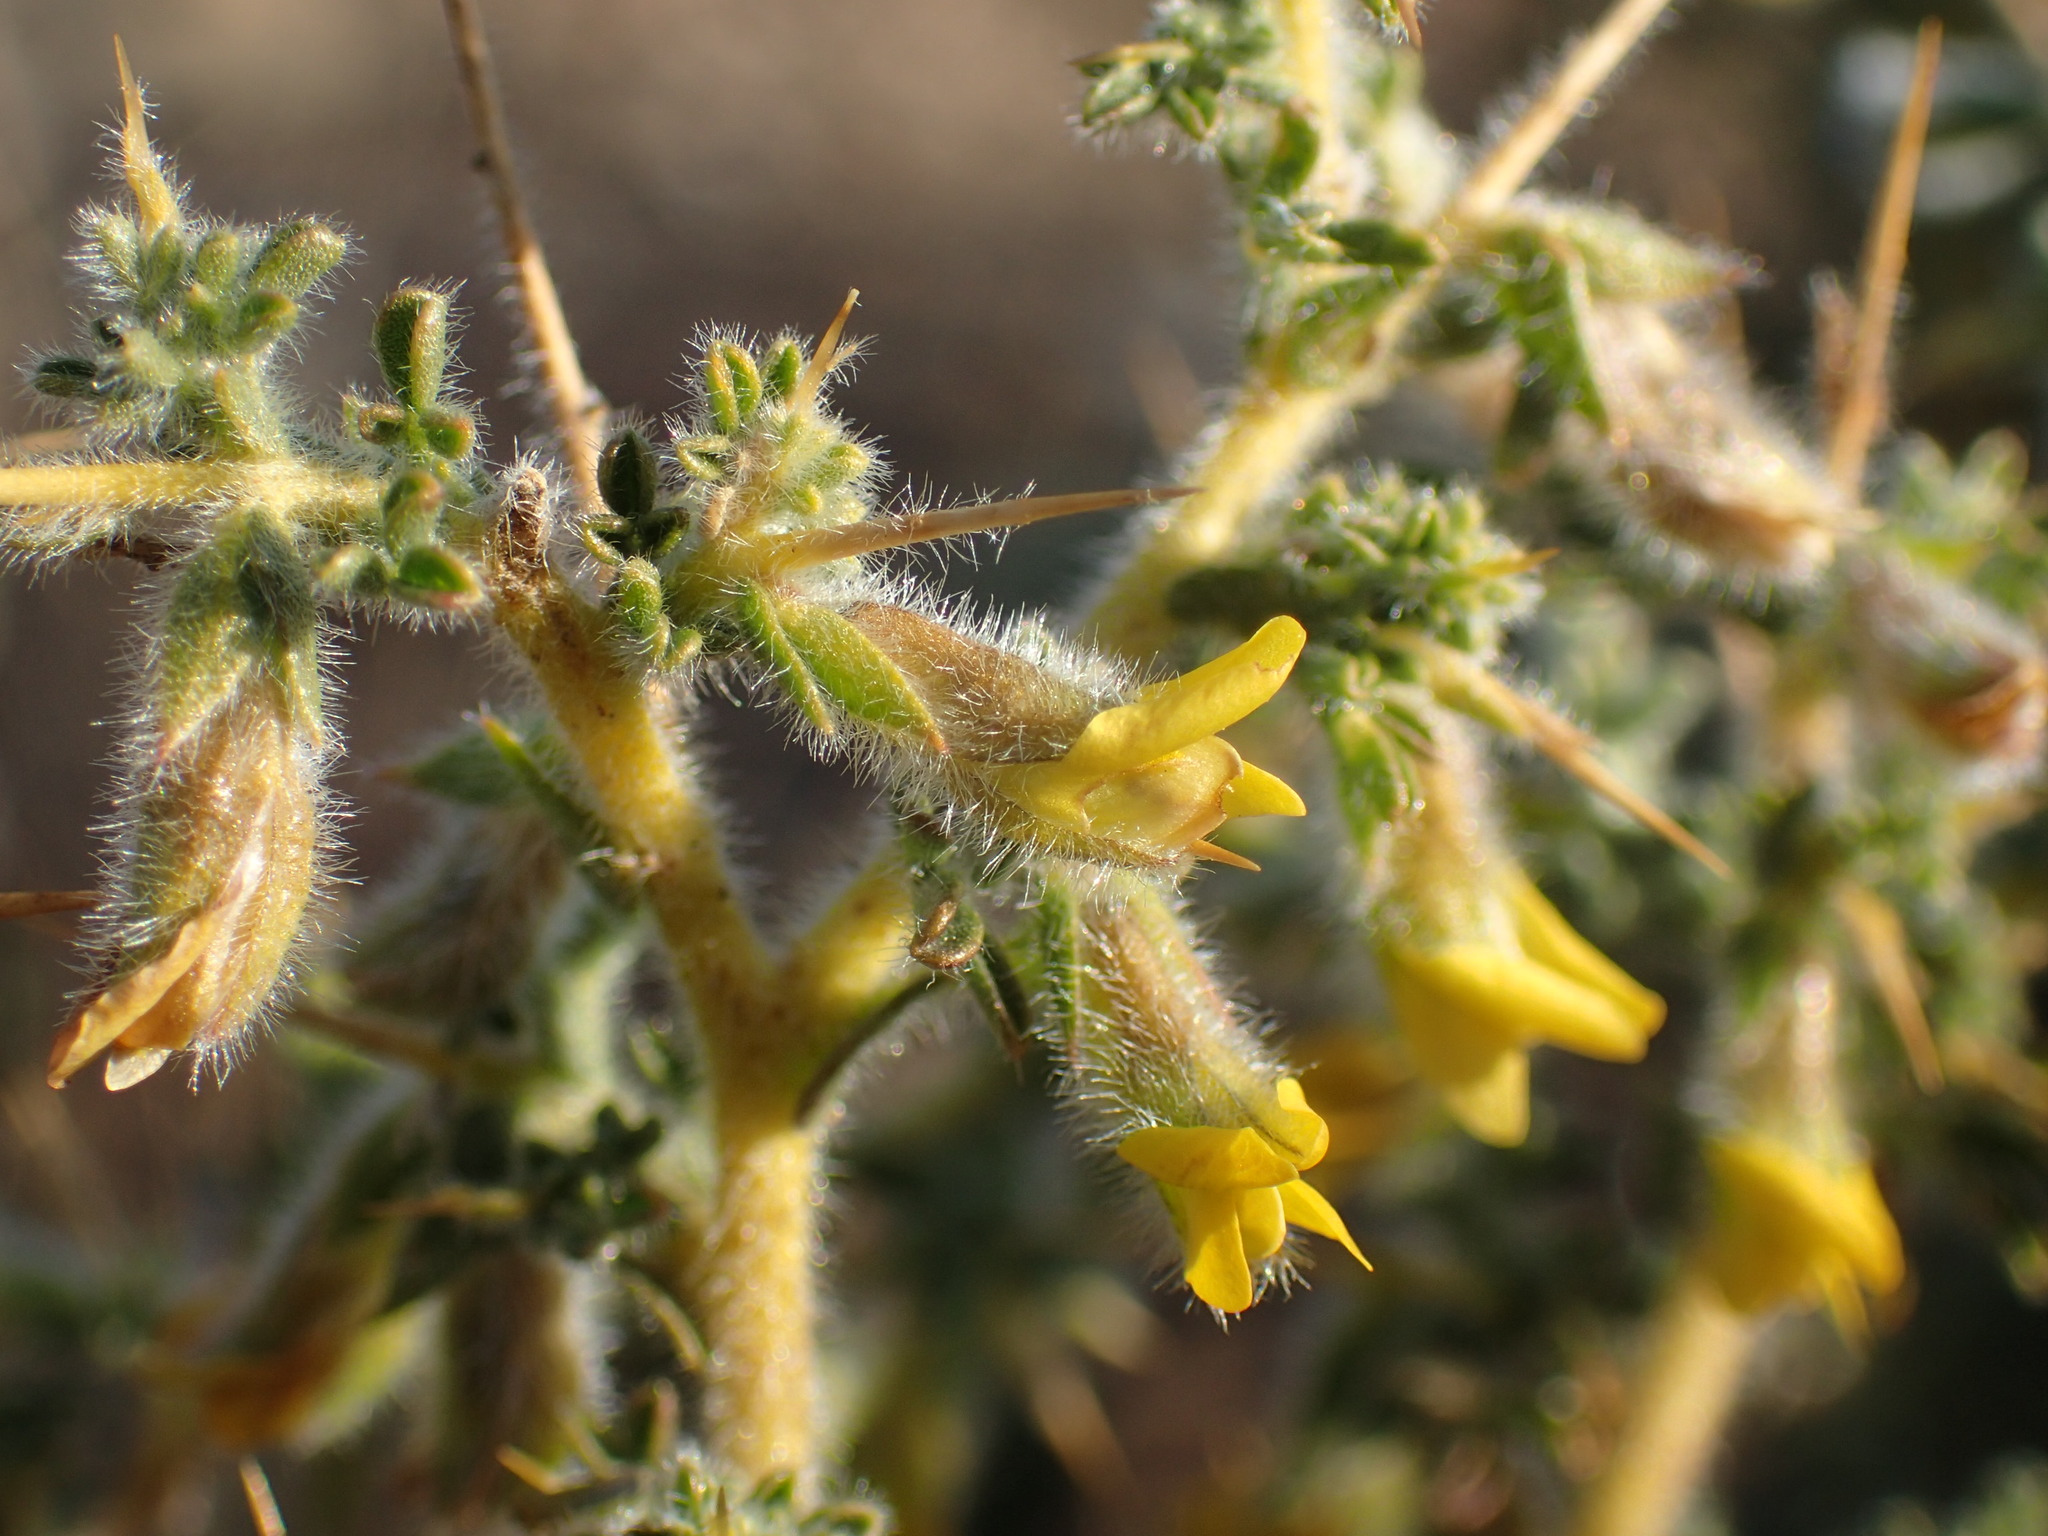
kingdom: Plantae
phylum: Tracheophyta
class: Magnoliopsida
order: Fabales
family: Fabaceae
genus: Melolobium
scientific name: Melolobium microphyllum
